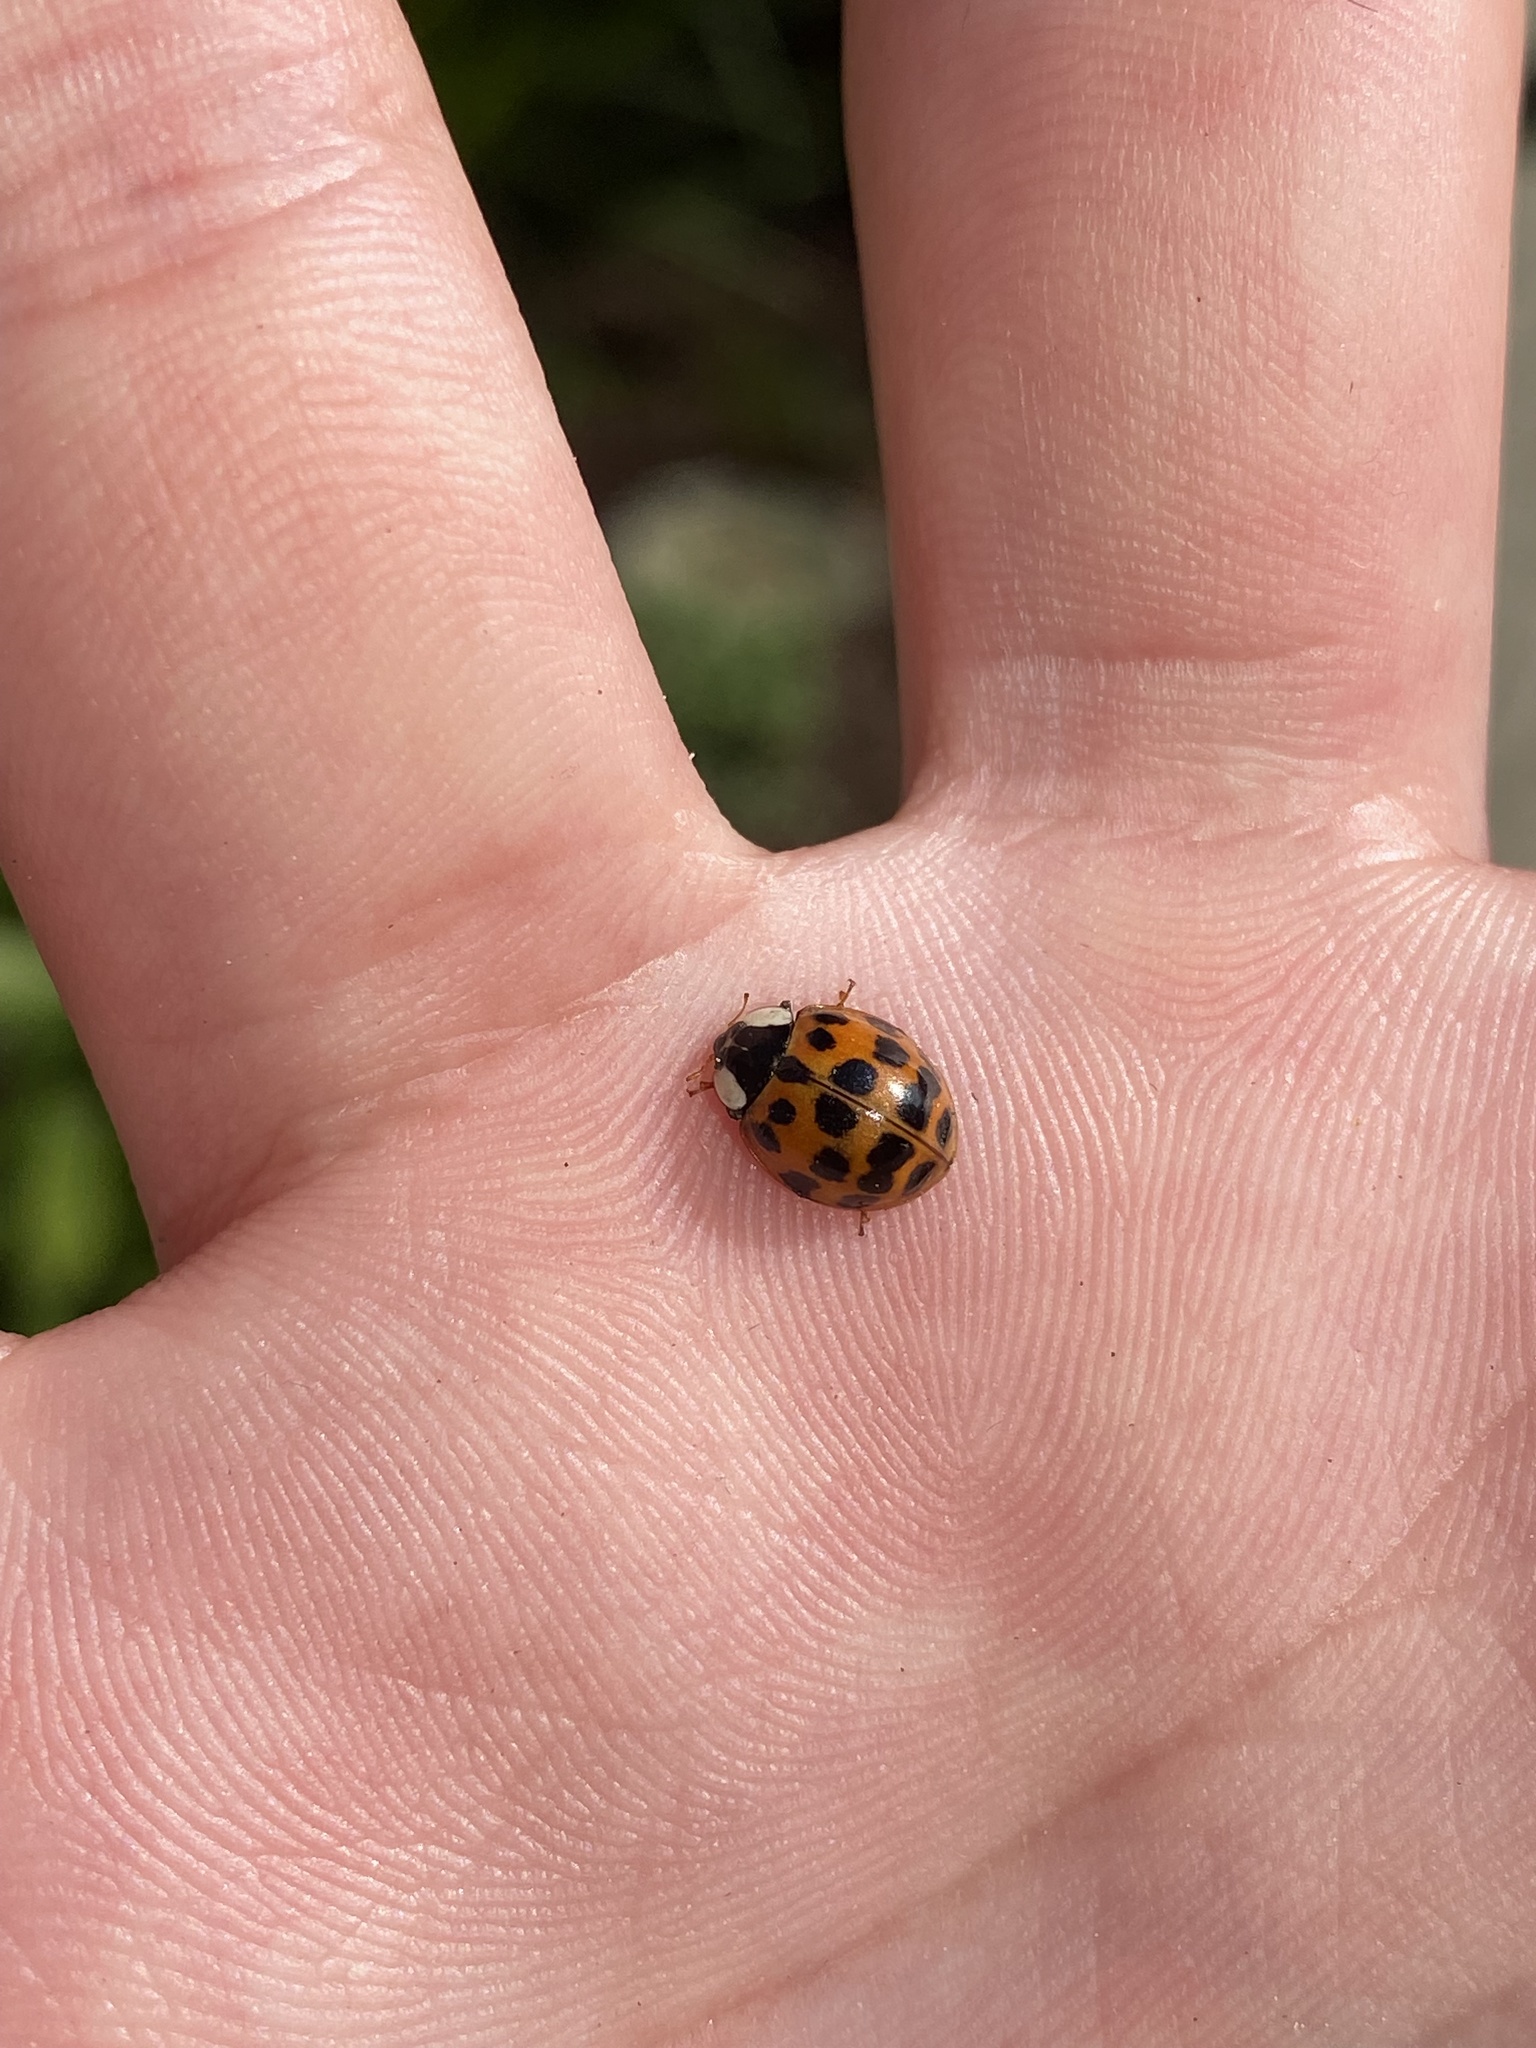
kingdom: Animalia
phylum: Arthropoda
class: Insecta
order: Coleoptera
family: Coccinellidae
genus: Harmonia
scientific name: Harmonia axyridis
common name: Harlequin ladybird
